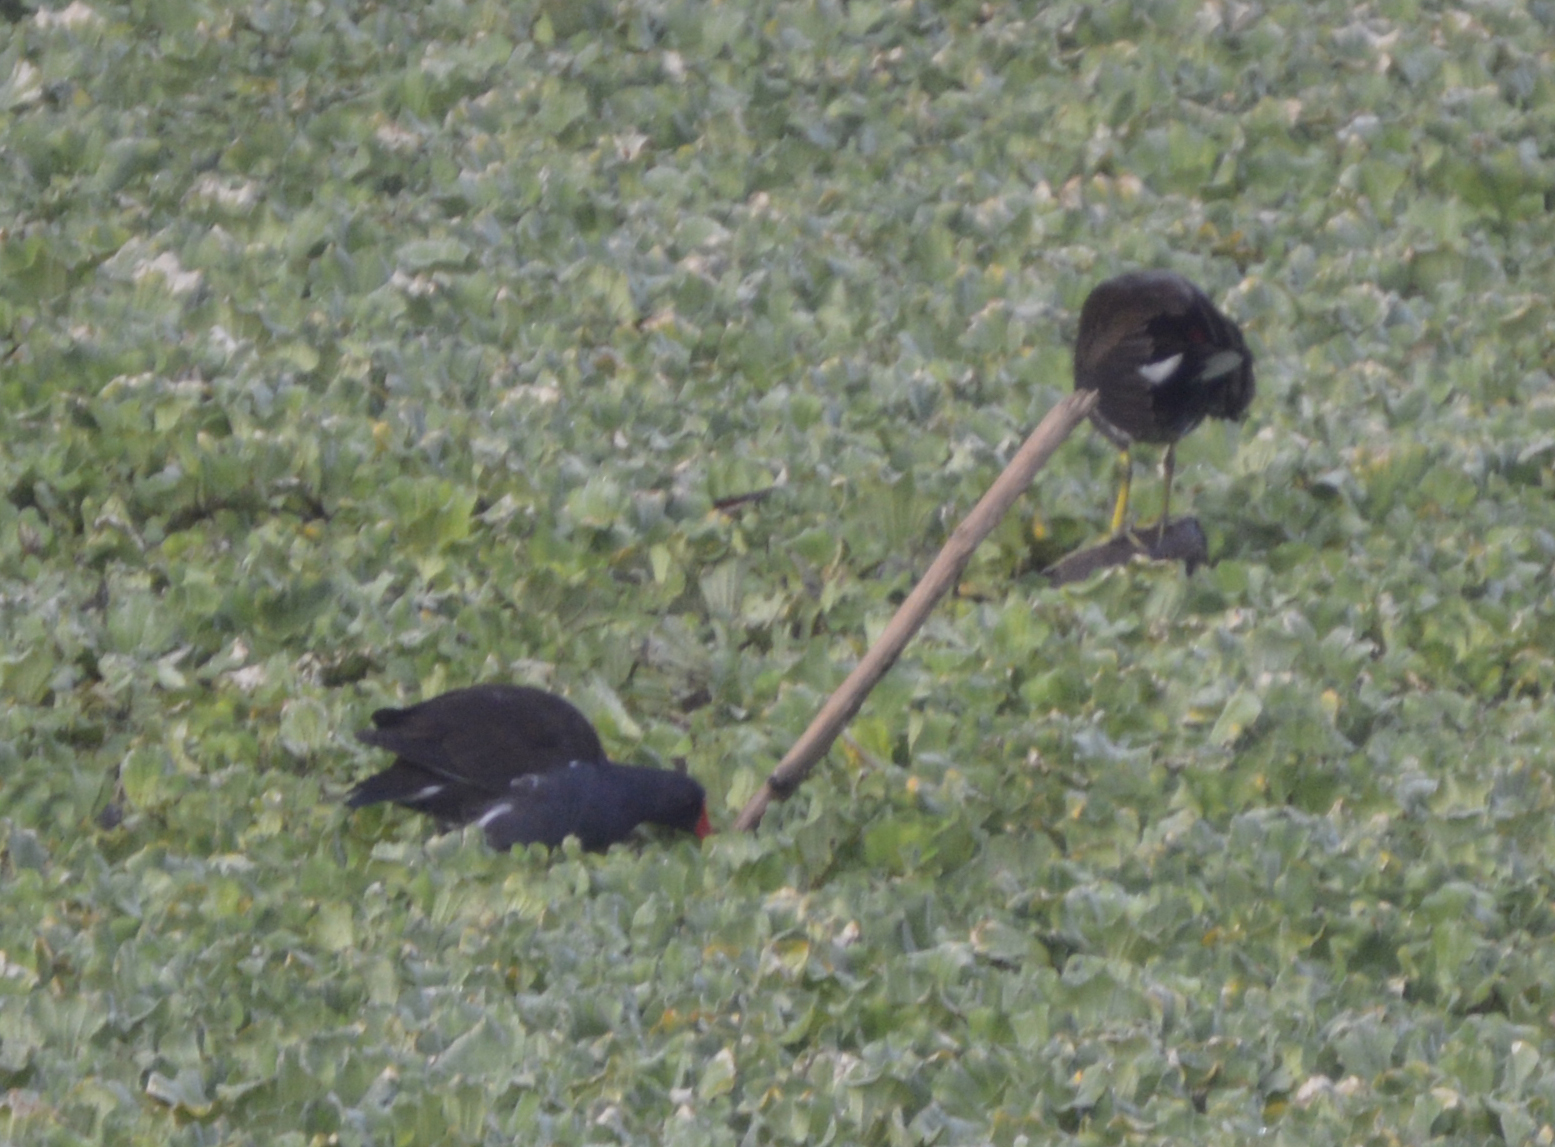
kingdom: Animalia
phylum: Chordata
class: Aves
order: Gruiformes
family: Rallidae
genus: Gallinula
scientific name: Gallinula chloropus
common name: Common moorhen
